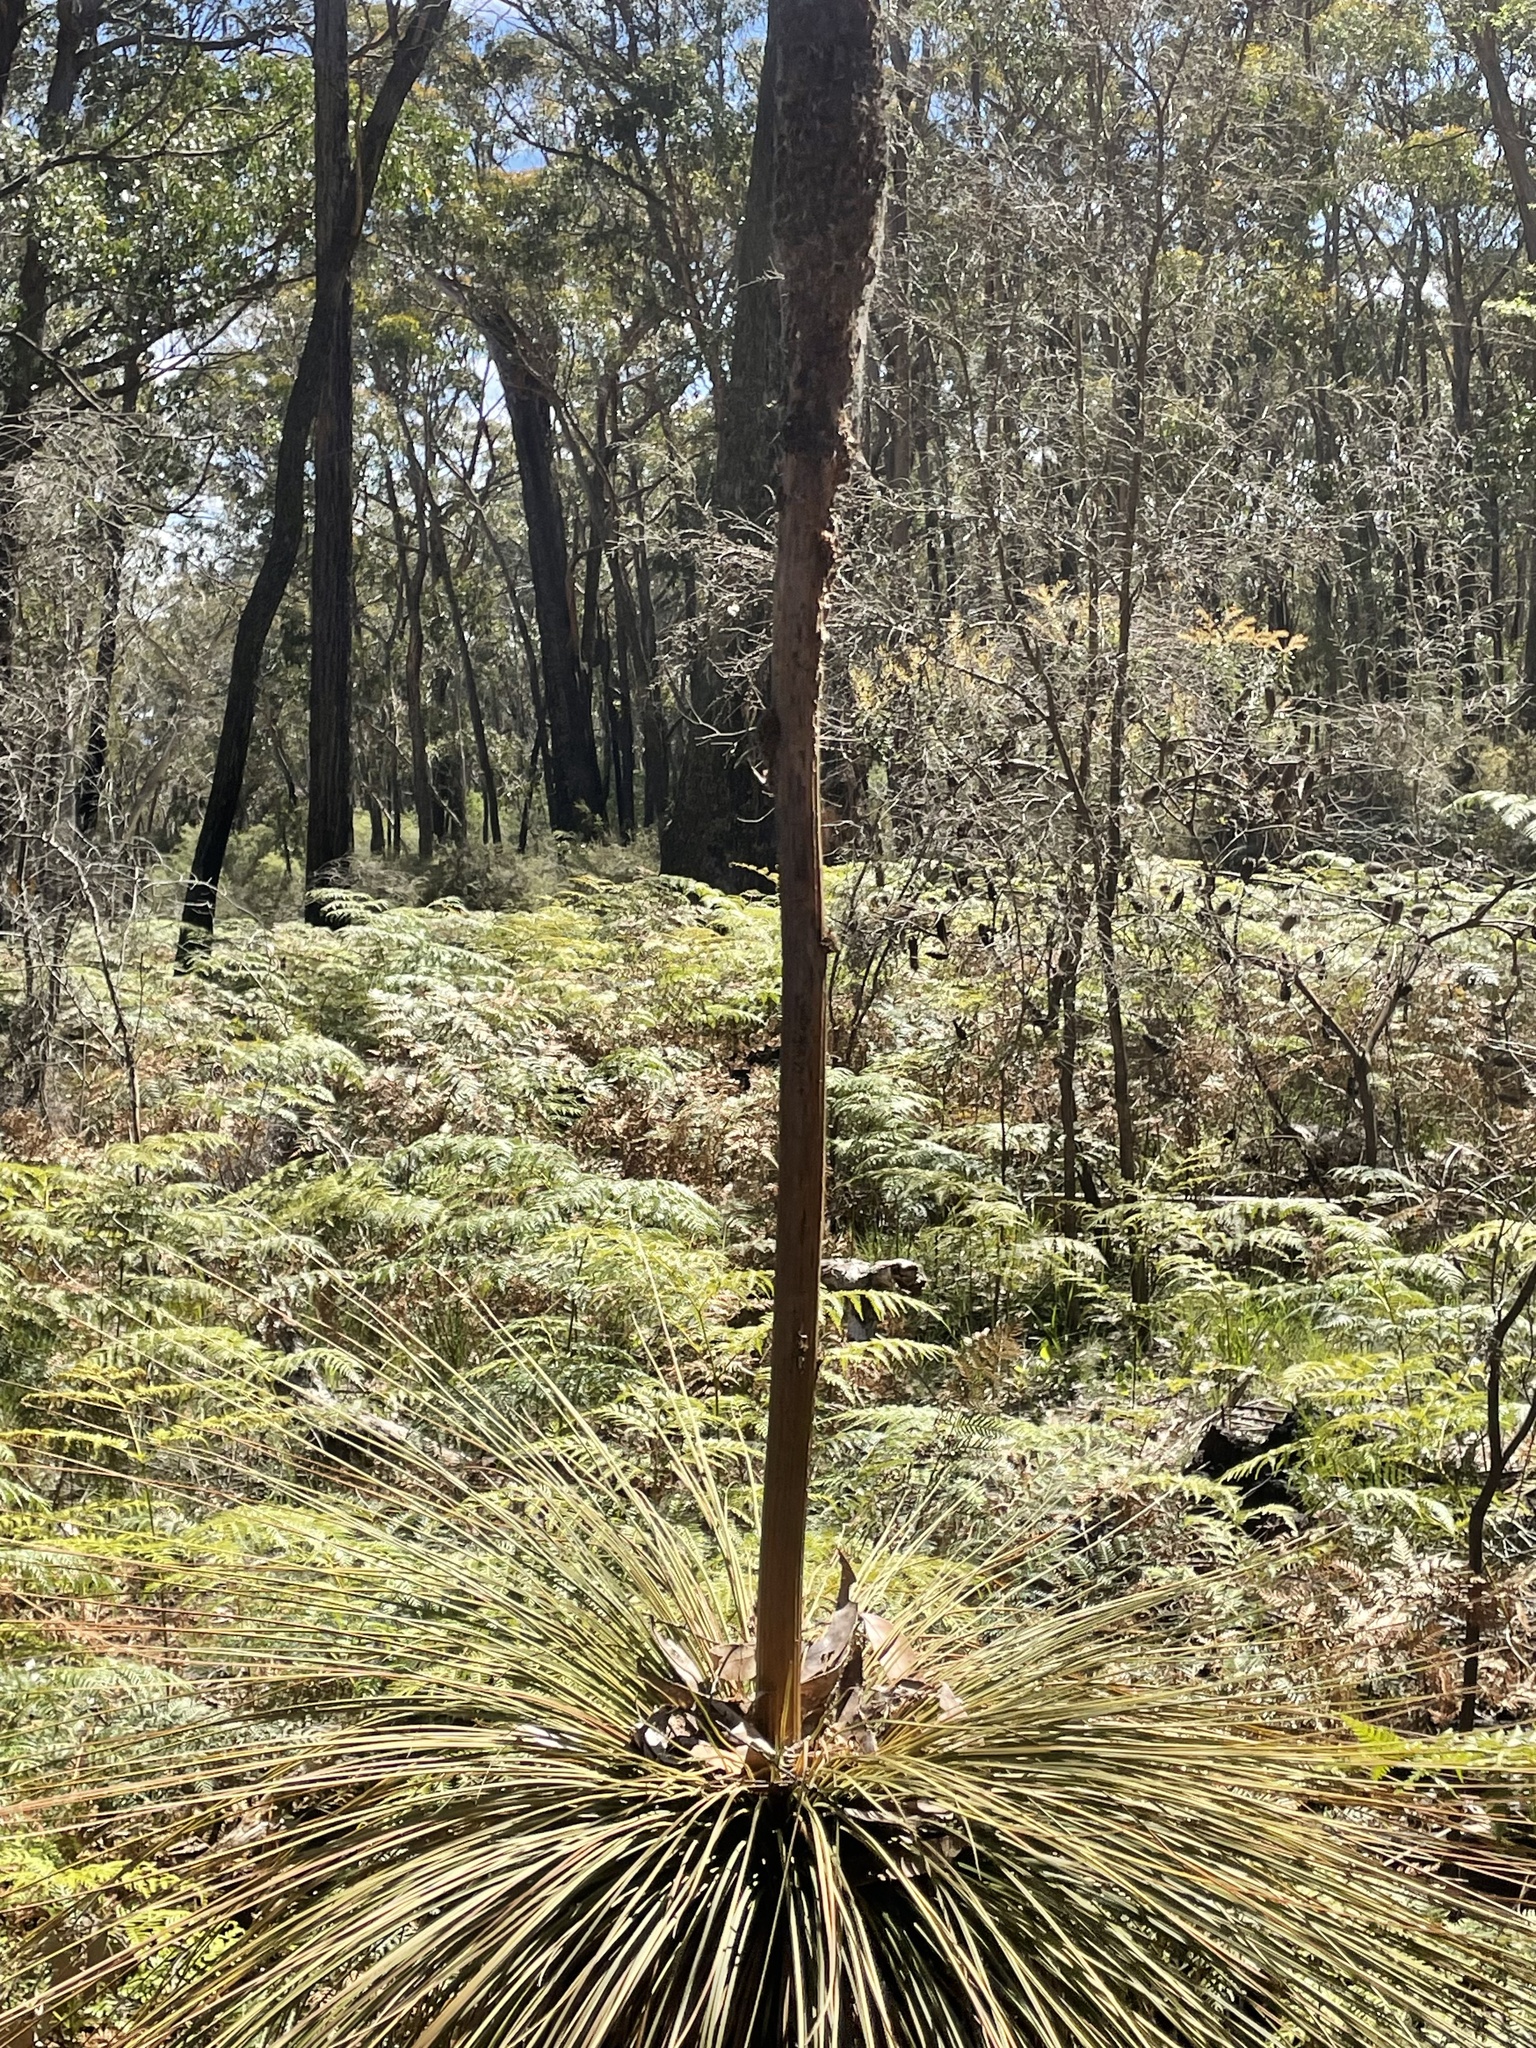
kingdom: Plantae
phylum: Tracheophyta
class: Liliopsida
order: Asparagales
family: Asphodelaceae
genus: Xanthorrhoea
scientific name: Xanthorrhoea australis
